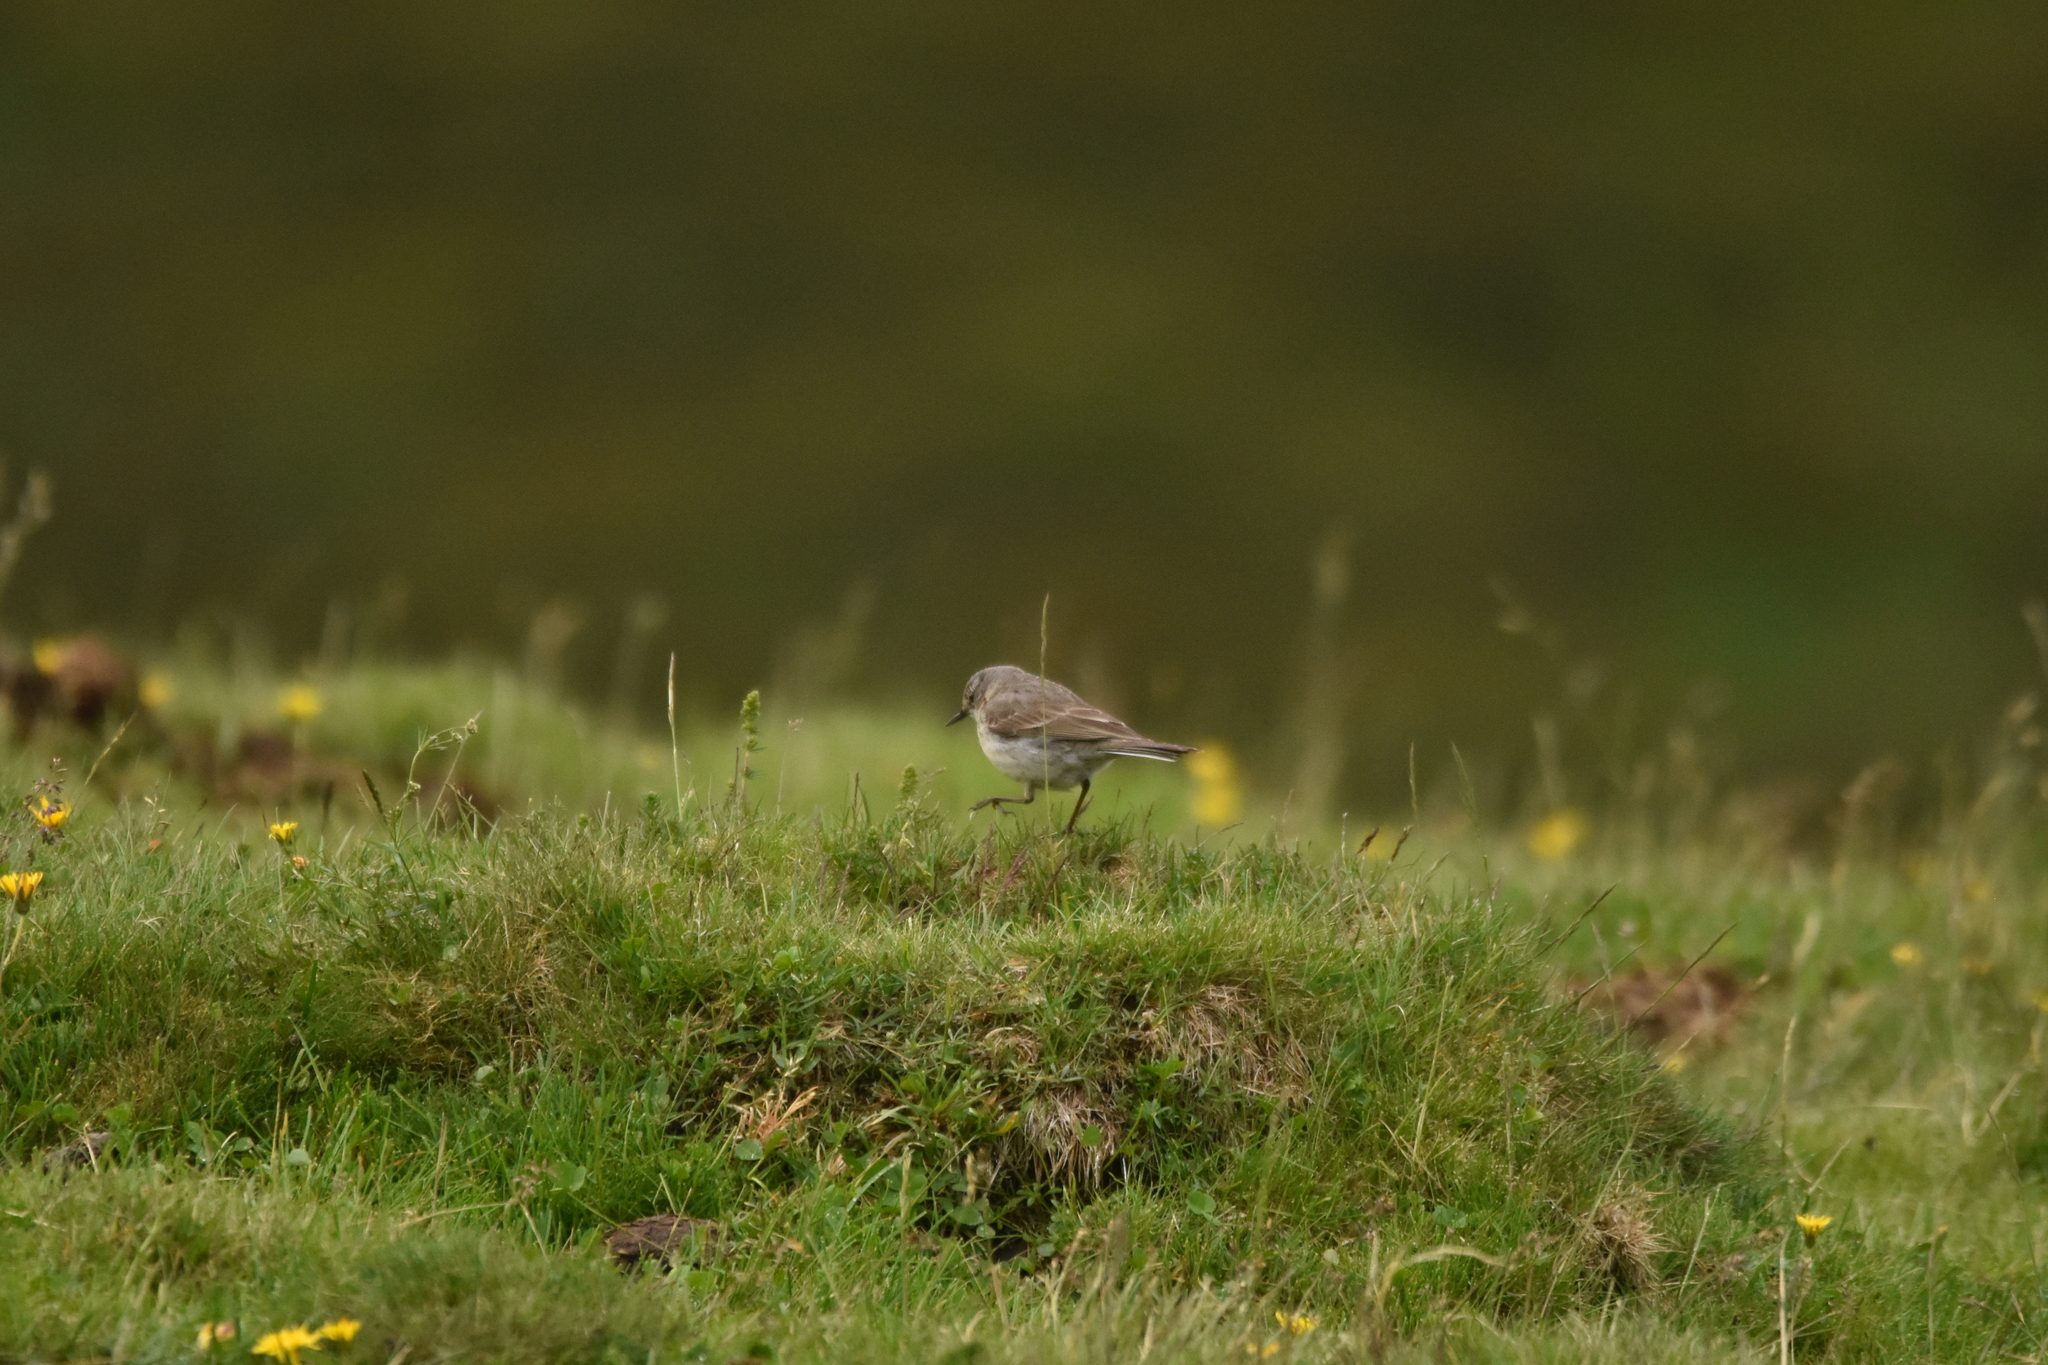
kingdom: Animalia
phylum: Chordata
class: Aves
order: Passeriformes
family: Motacillidae
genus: Anthus
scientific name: Anthus spinoletta
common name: Water pipit
